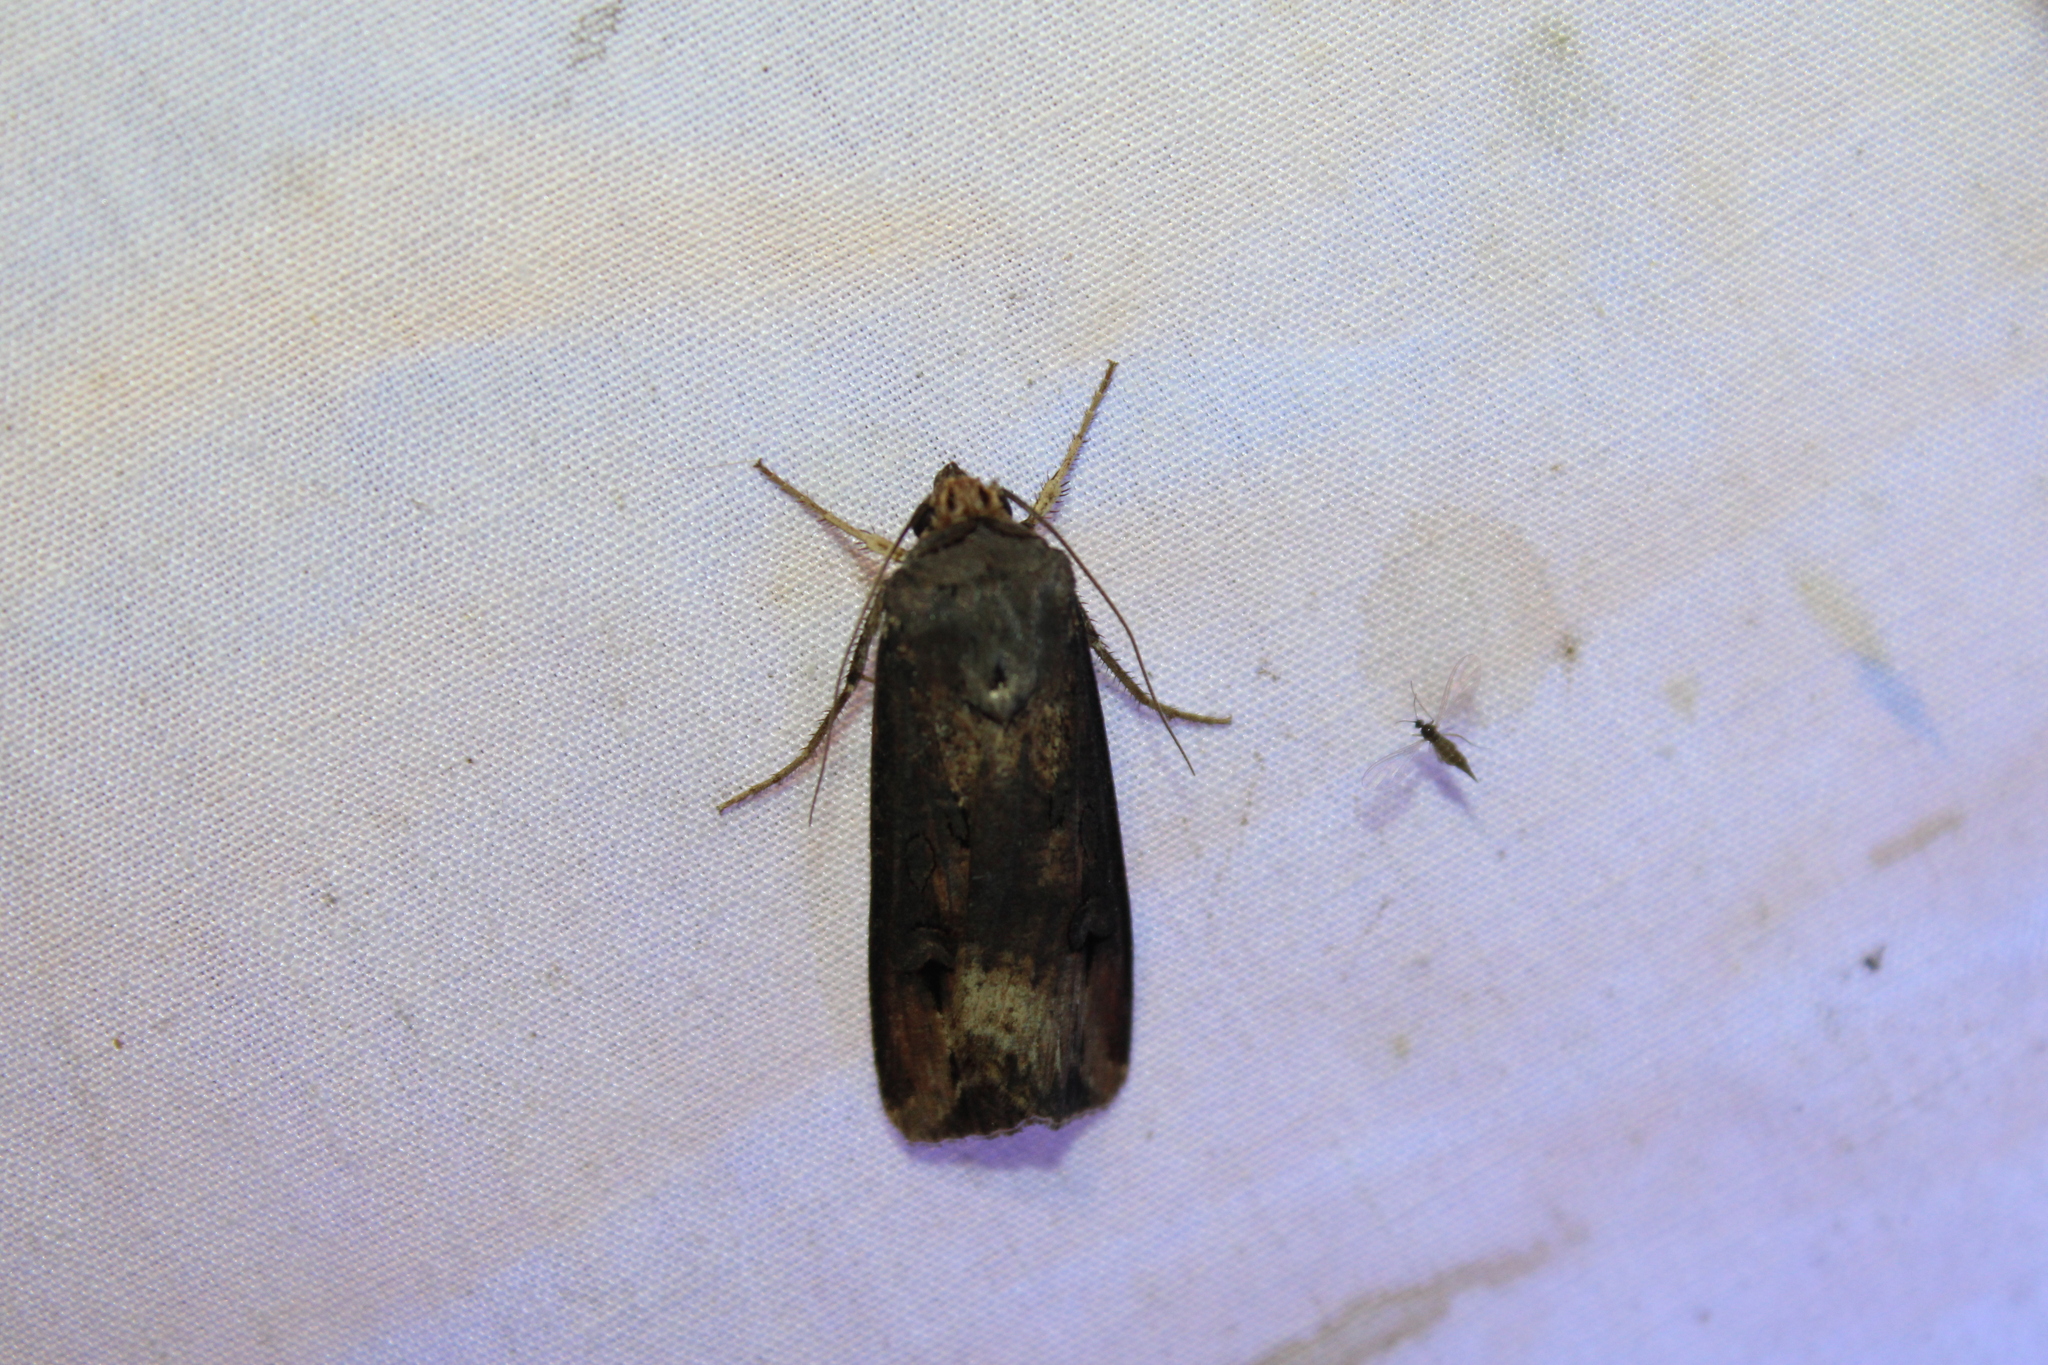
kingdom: Animalia
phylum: Arthropoda
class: Insecta
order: Lepidoptera
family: Noctuidae
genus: Agrotis
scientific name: Agrotis ipsilon
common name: Dark sword-grass
